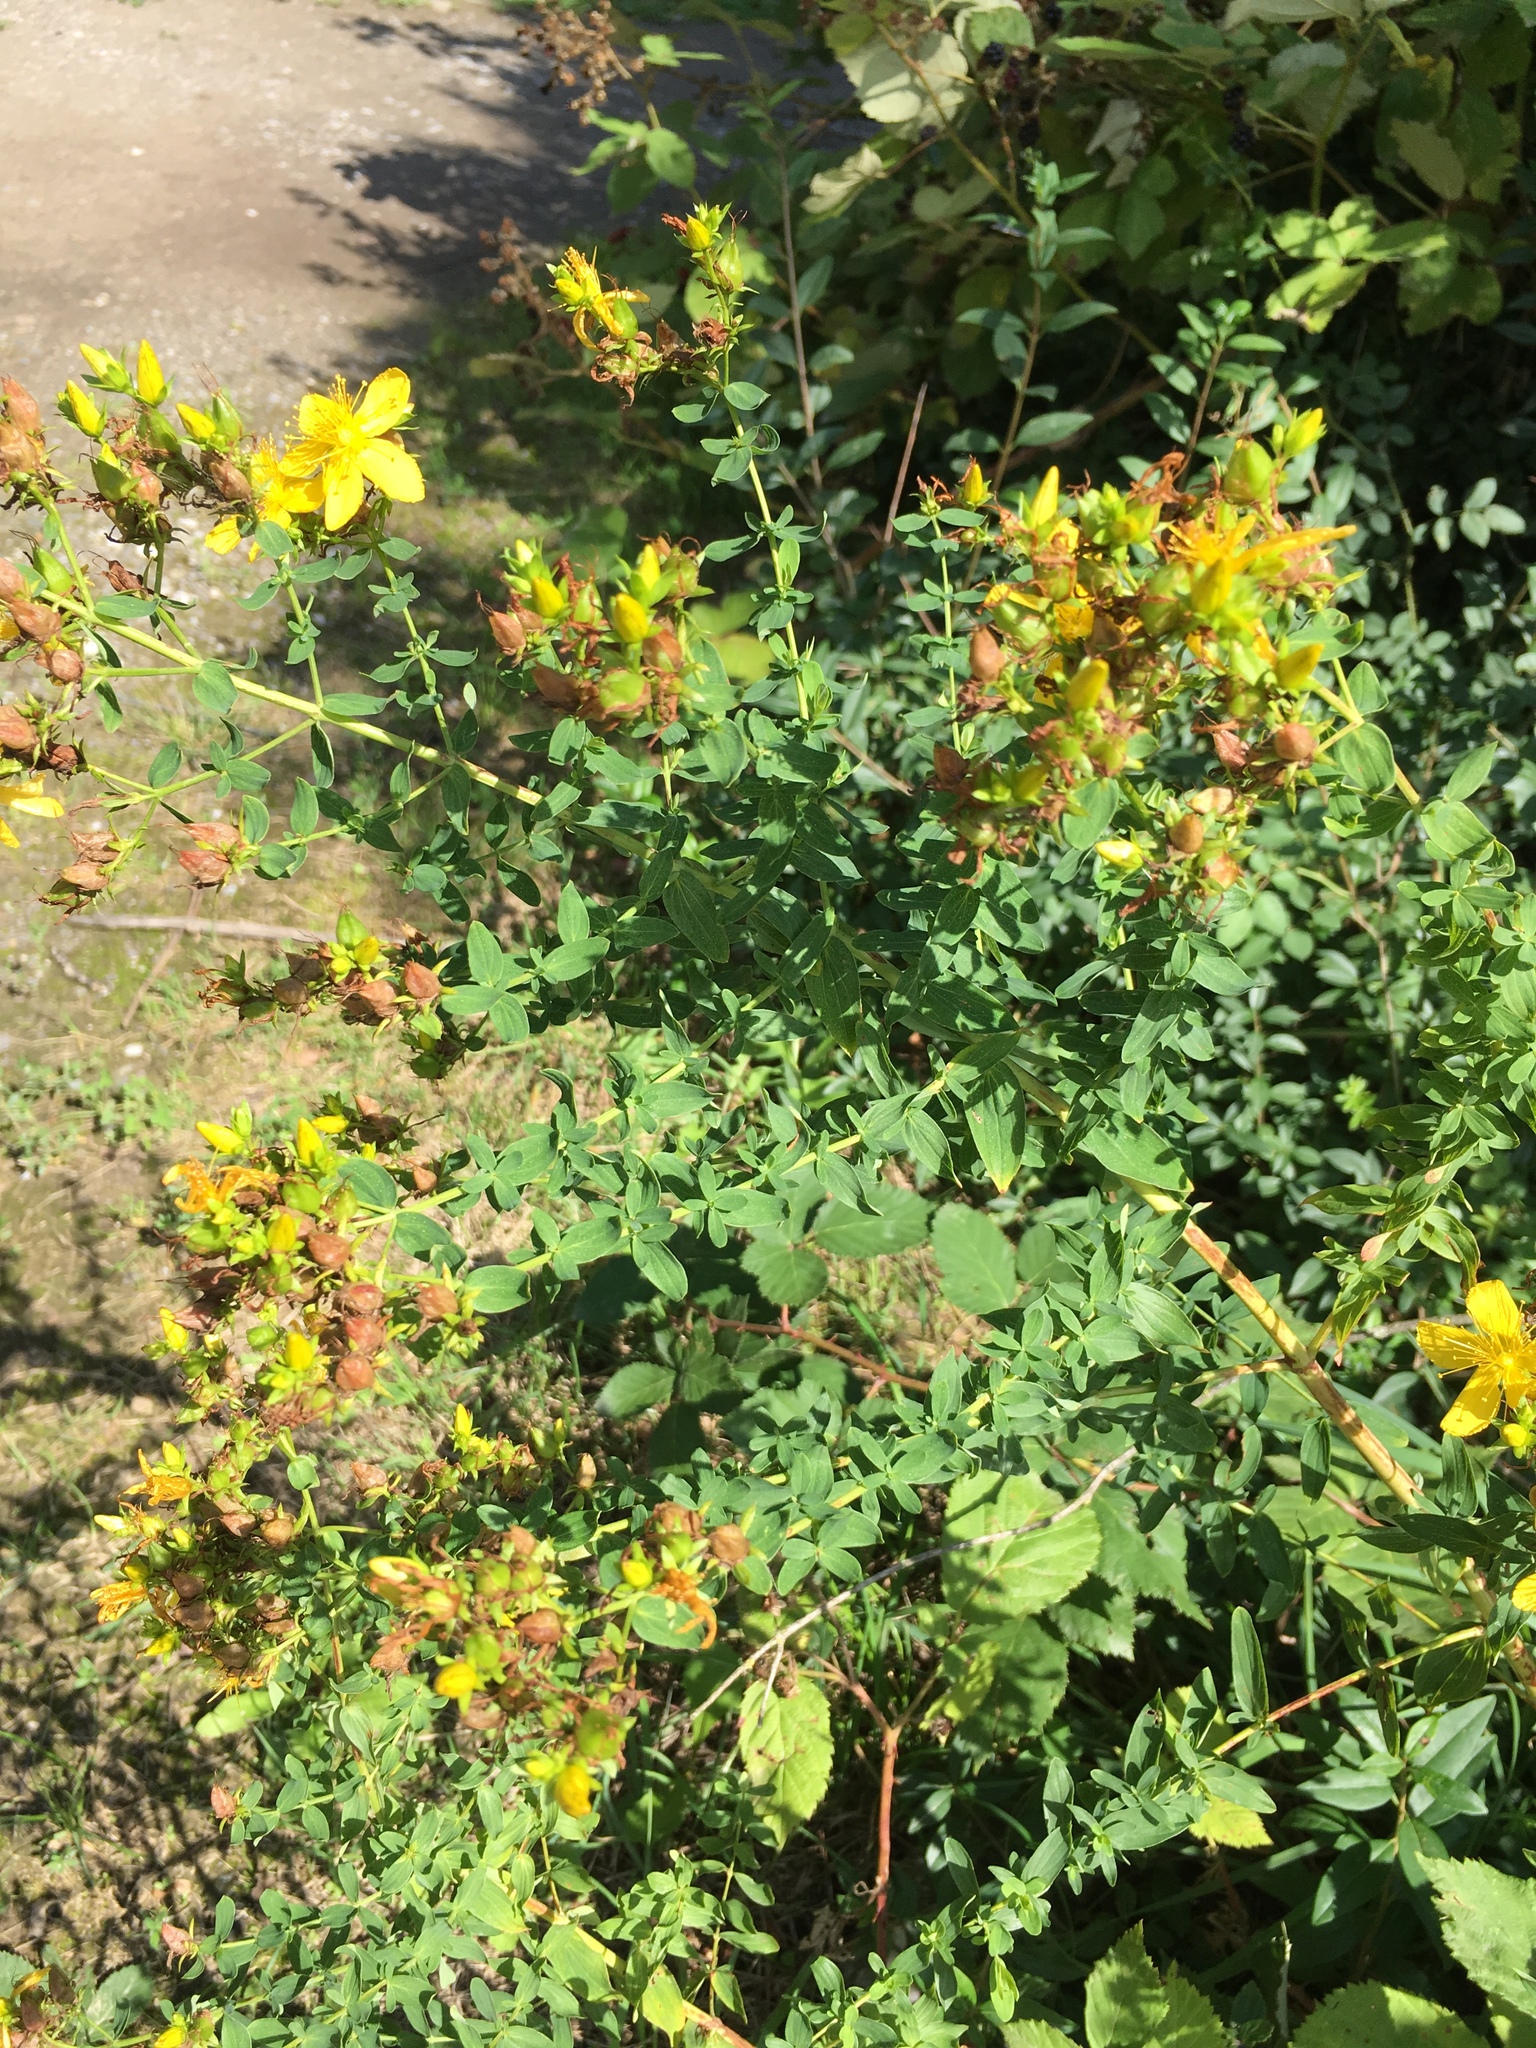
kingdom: Plantae
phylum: Tracheophyta
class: Magnoliopsida
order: Malpighiales
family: Hypericaceae
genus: Hypericum
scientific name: Hypericum perforatum
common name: Common st. johnswort
